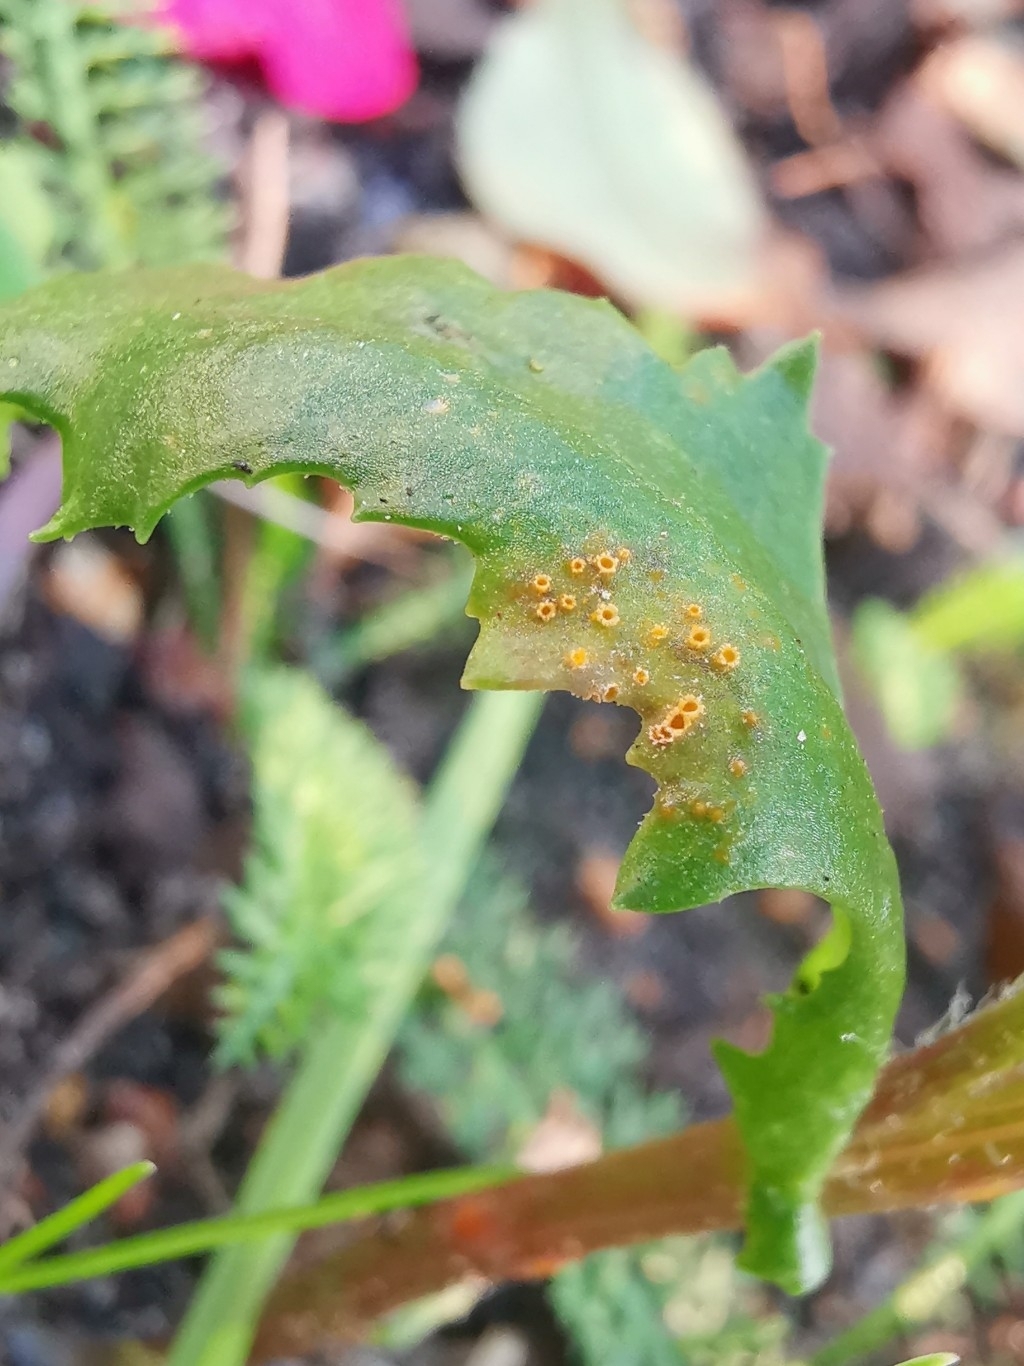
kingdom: Fungi
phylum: Basidiomycota
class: Pucciniomycetes
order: Pucciniales
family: Pucciniaceae
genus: Puccinia
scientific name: Puccinia lagenophorae
